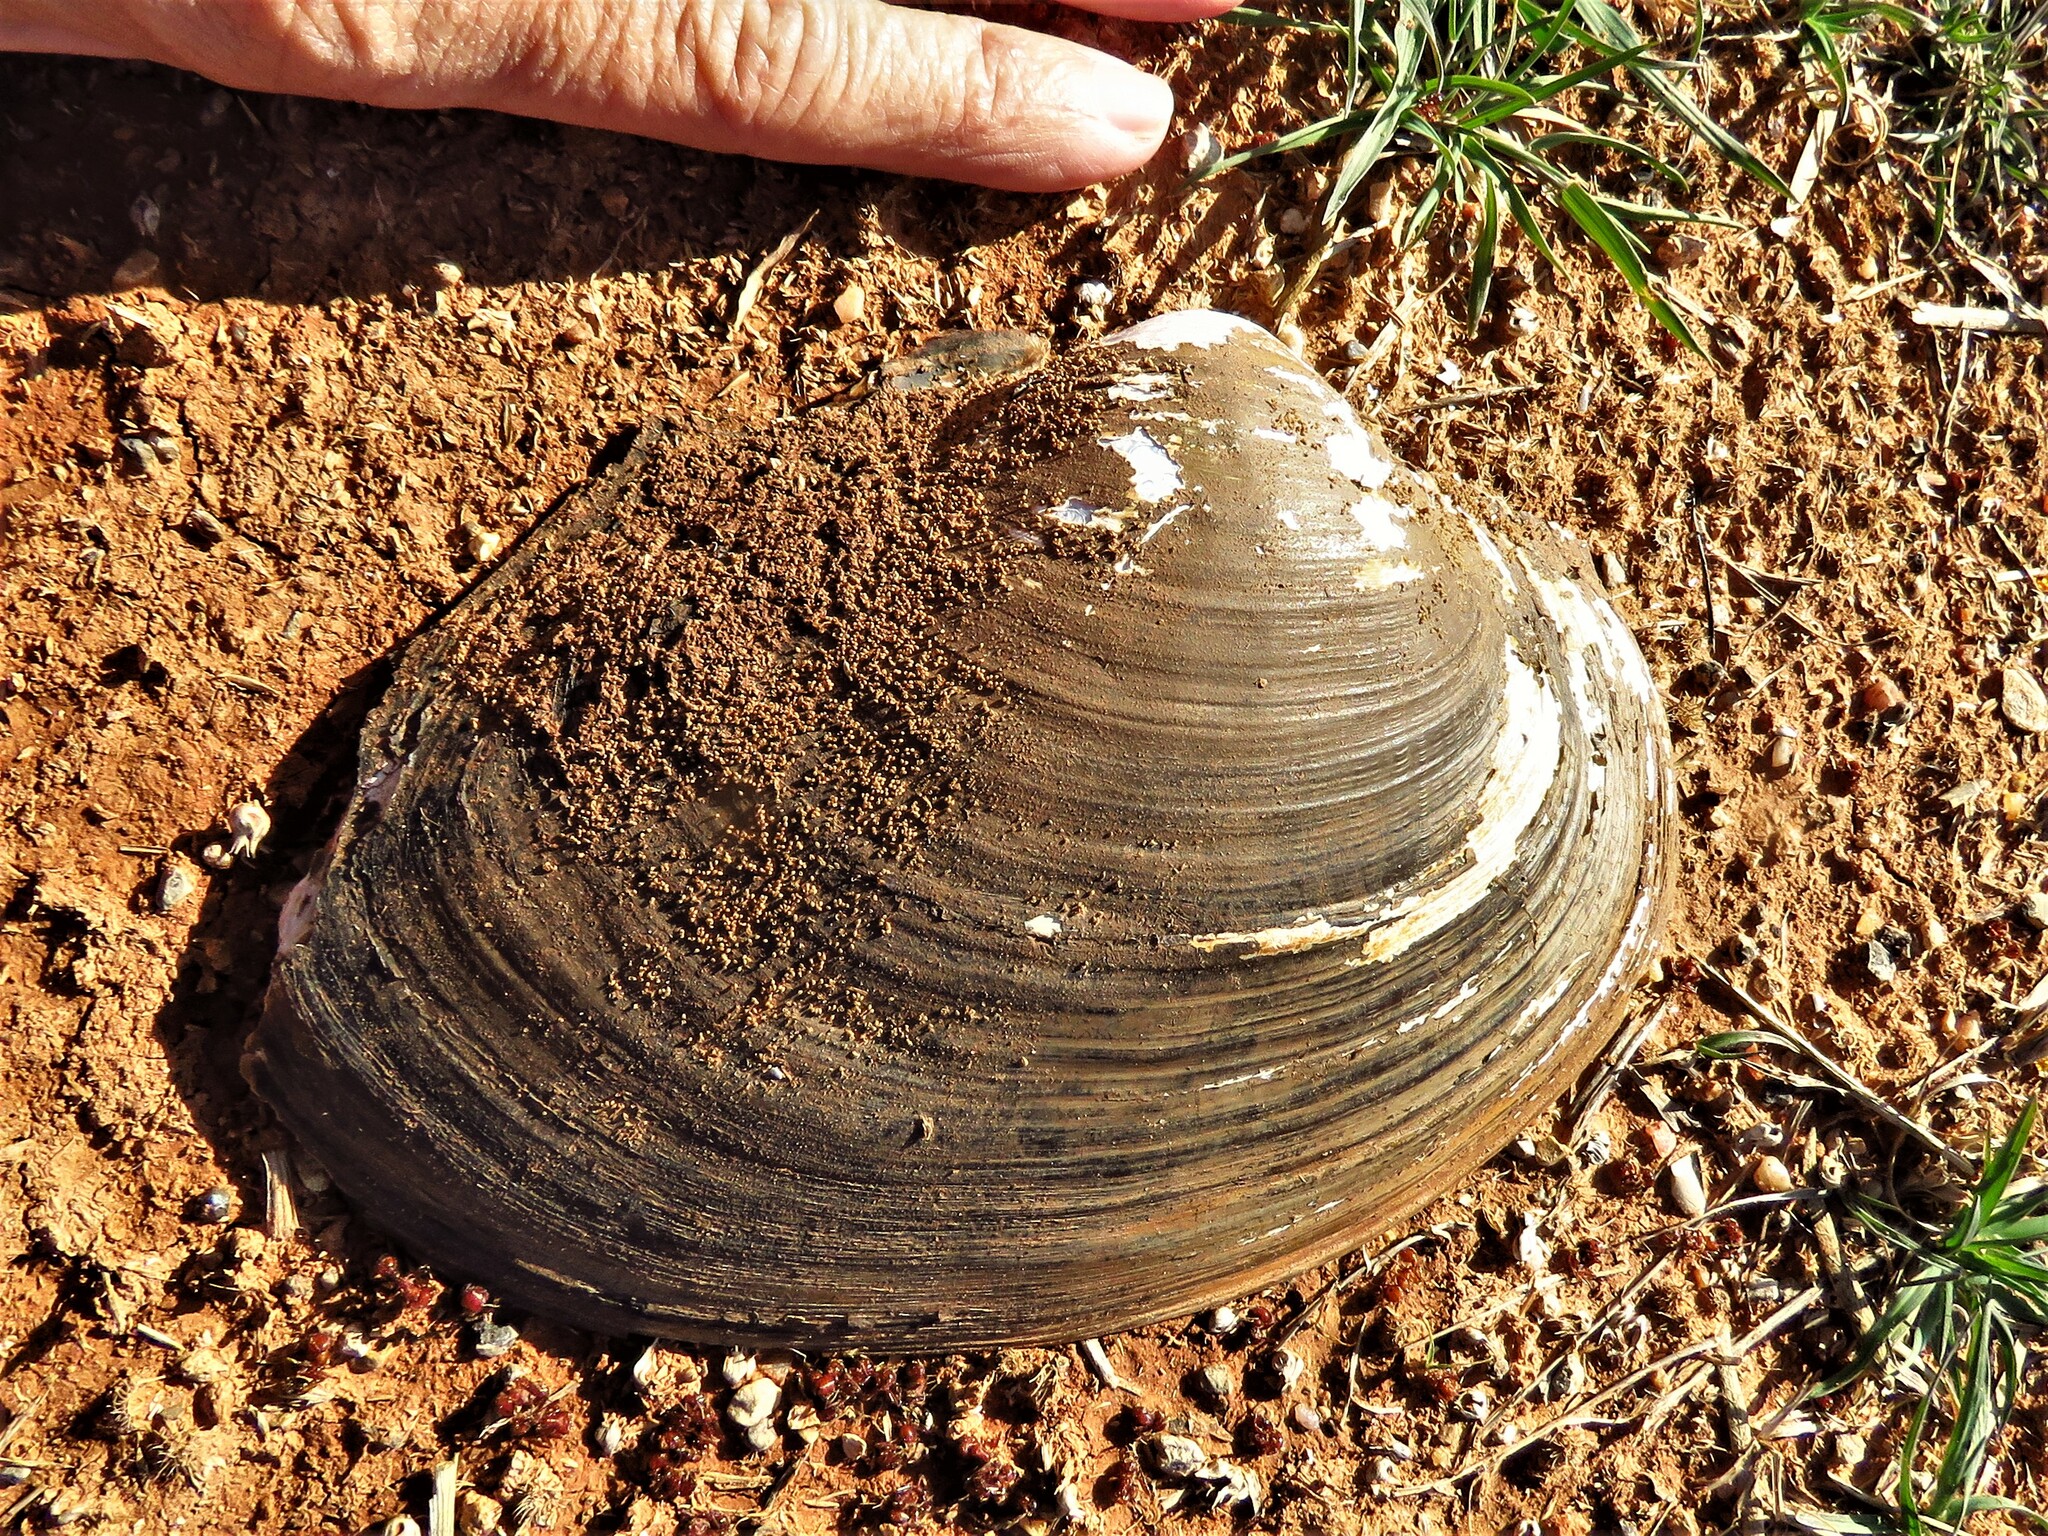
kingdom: Animalia
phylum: Mollusca
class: Bivalvia
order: Unionida
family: Unionidae
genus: Pyganodon
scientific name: Pyganodon grandis
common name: Giant floater
